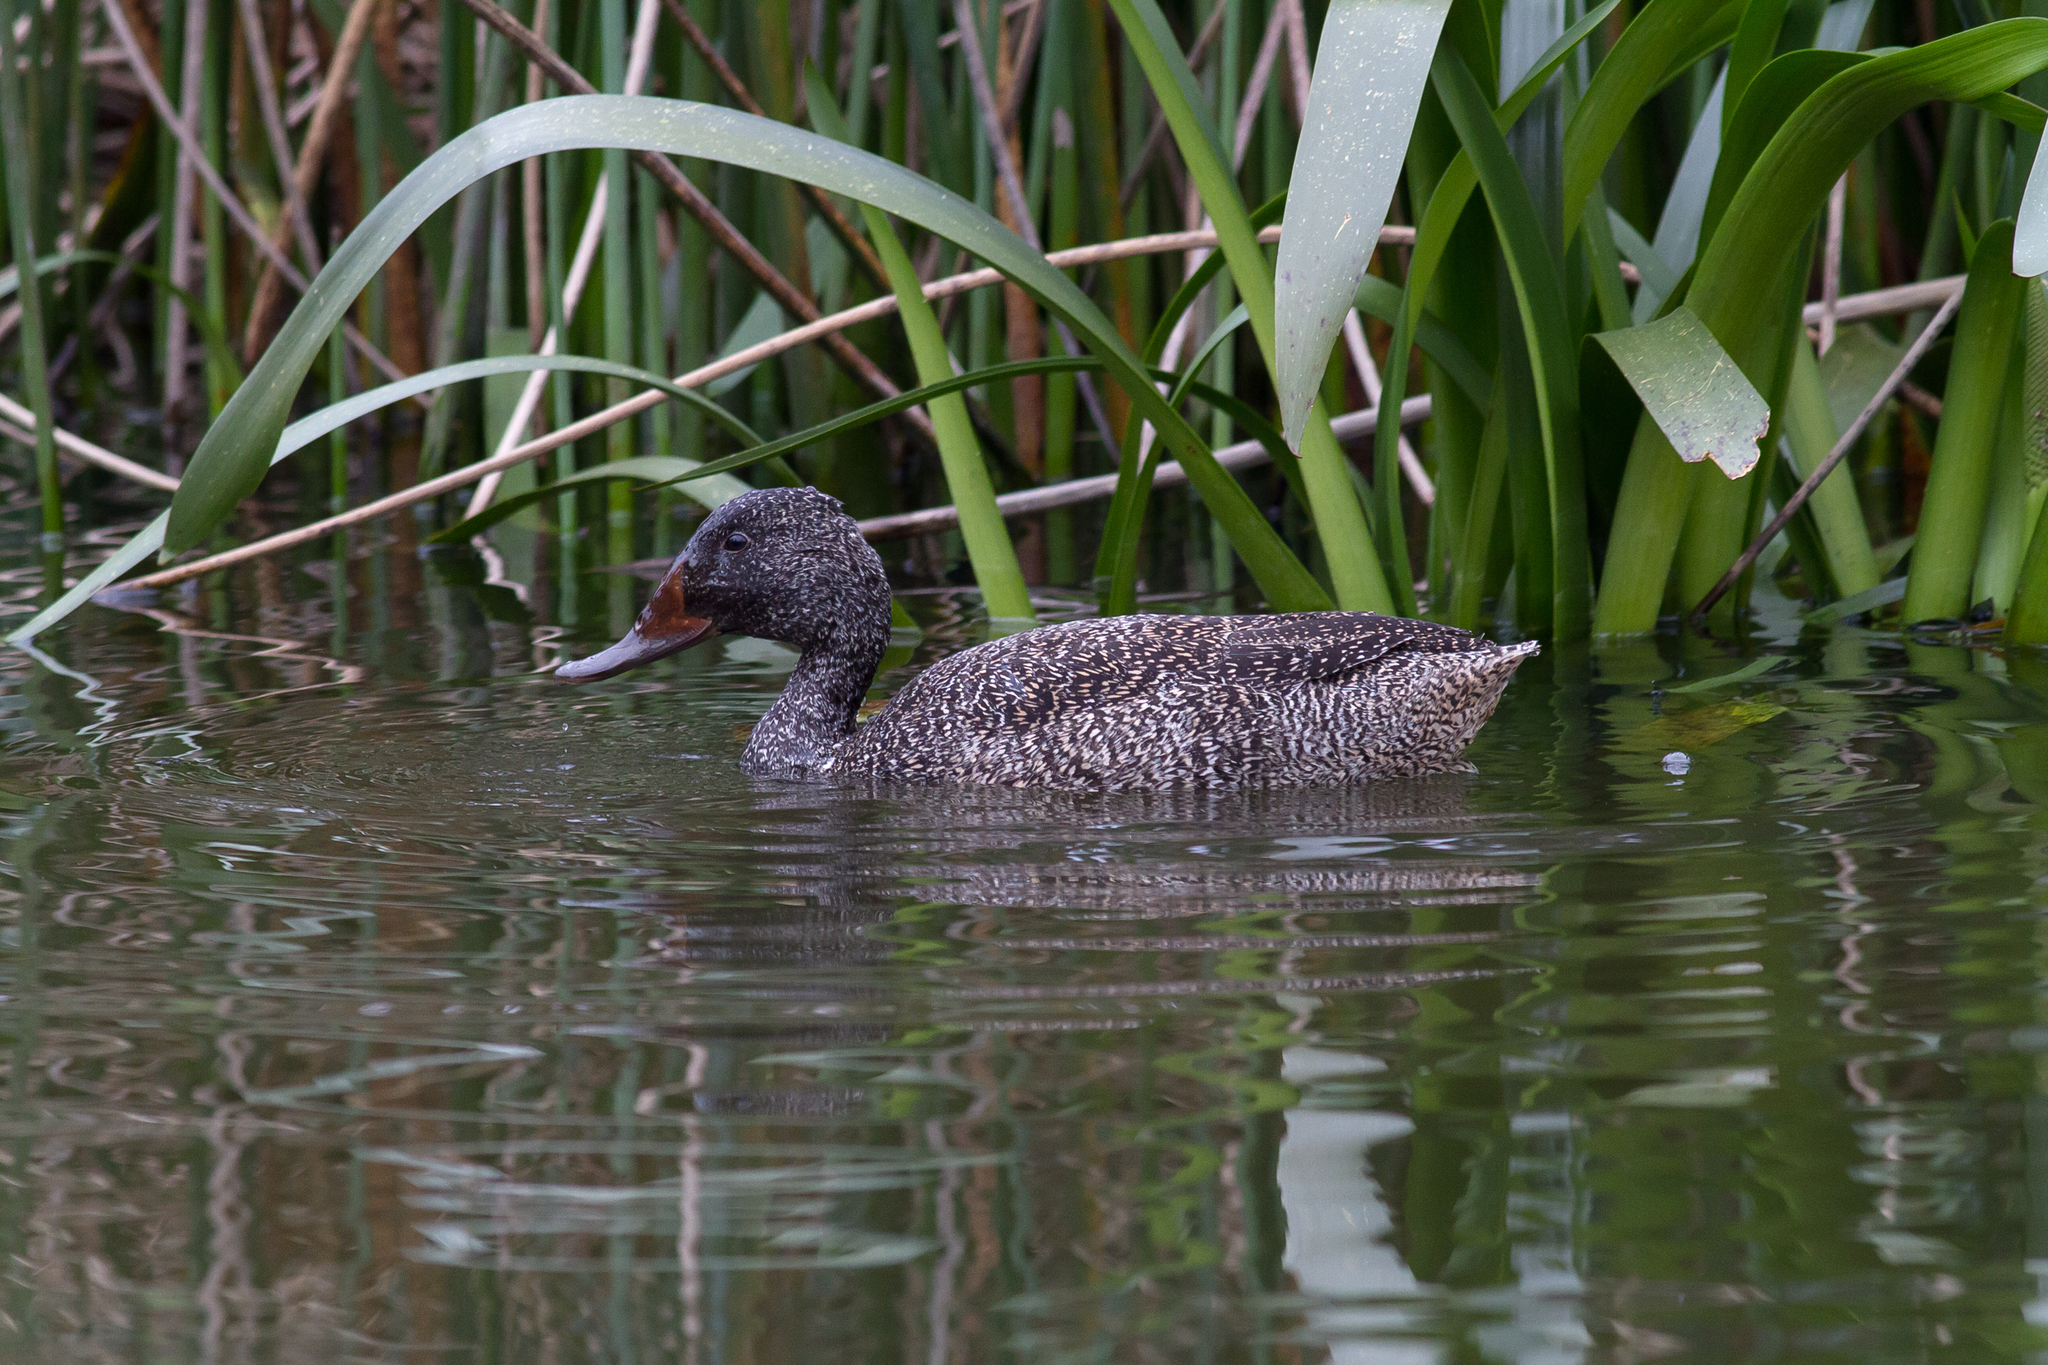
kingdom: Animalia
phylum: Chordata
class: Aves
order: Anseriformes
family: Anatidae
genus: Stictonetta
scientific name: Stictonetta naevosa
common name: Freckled duck
